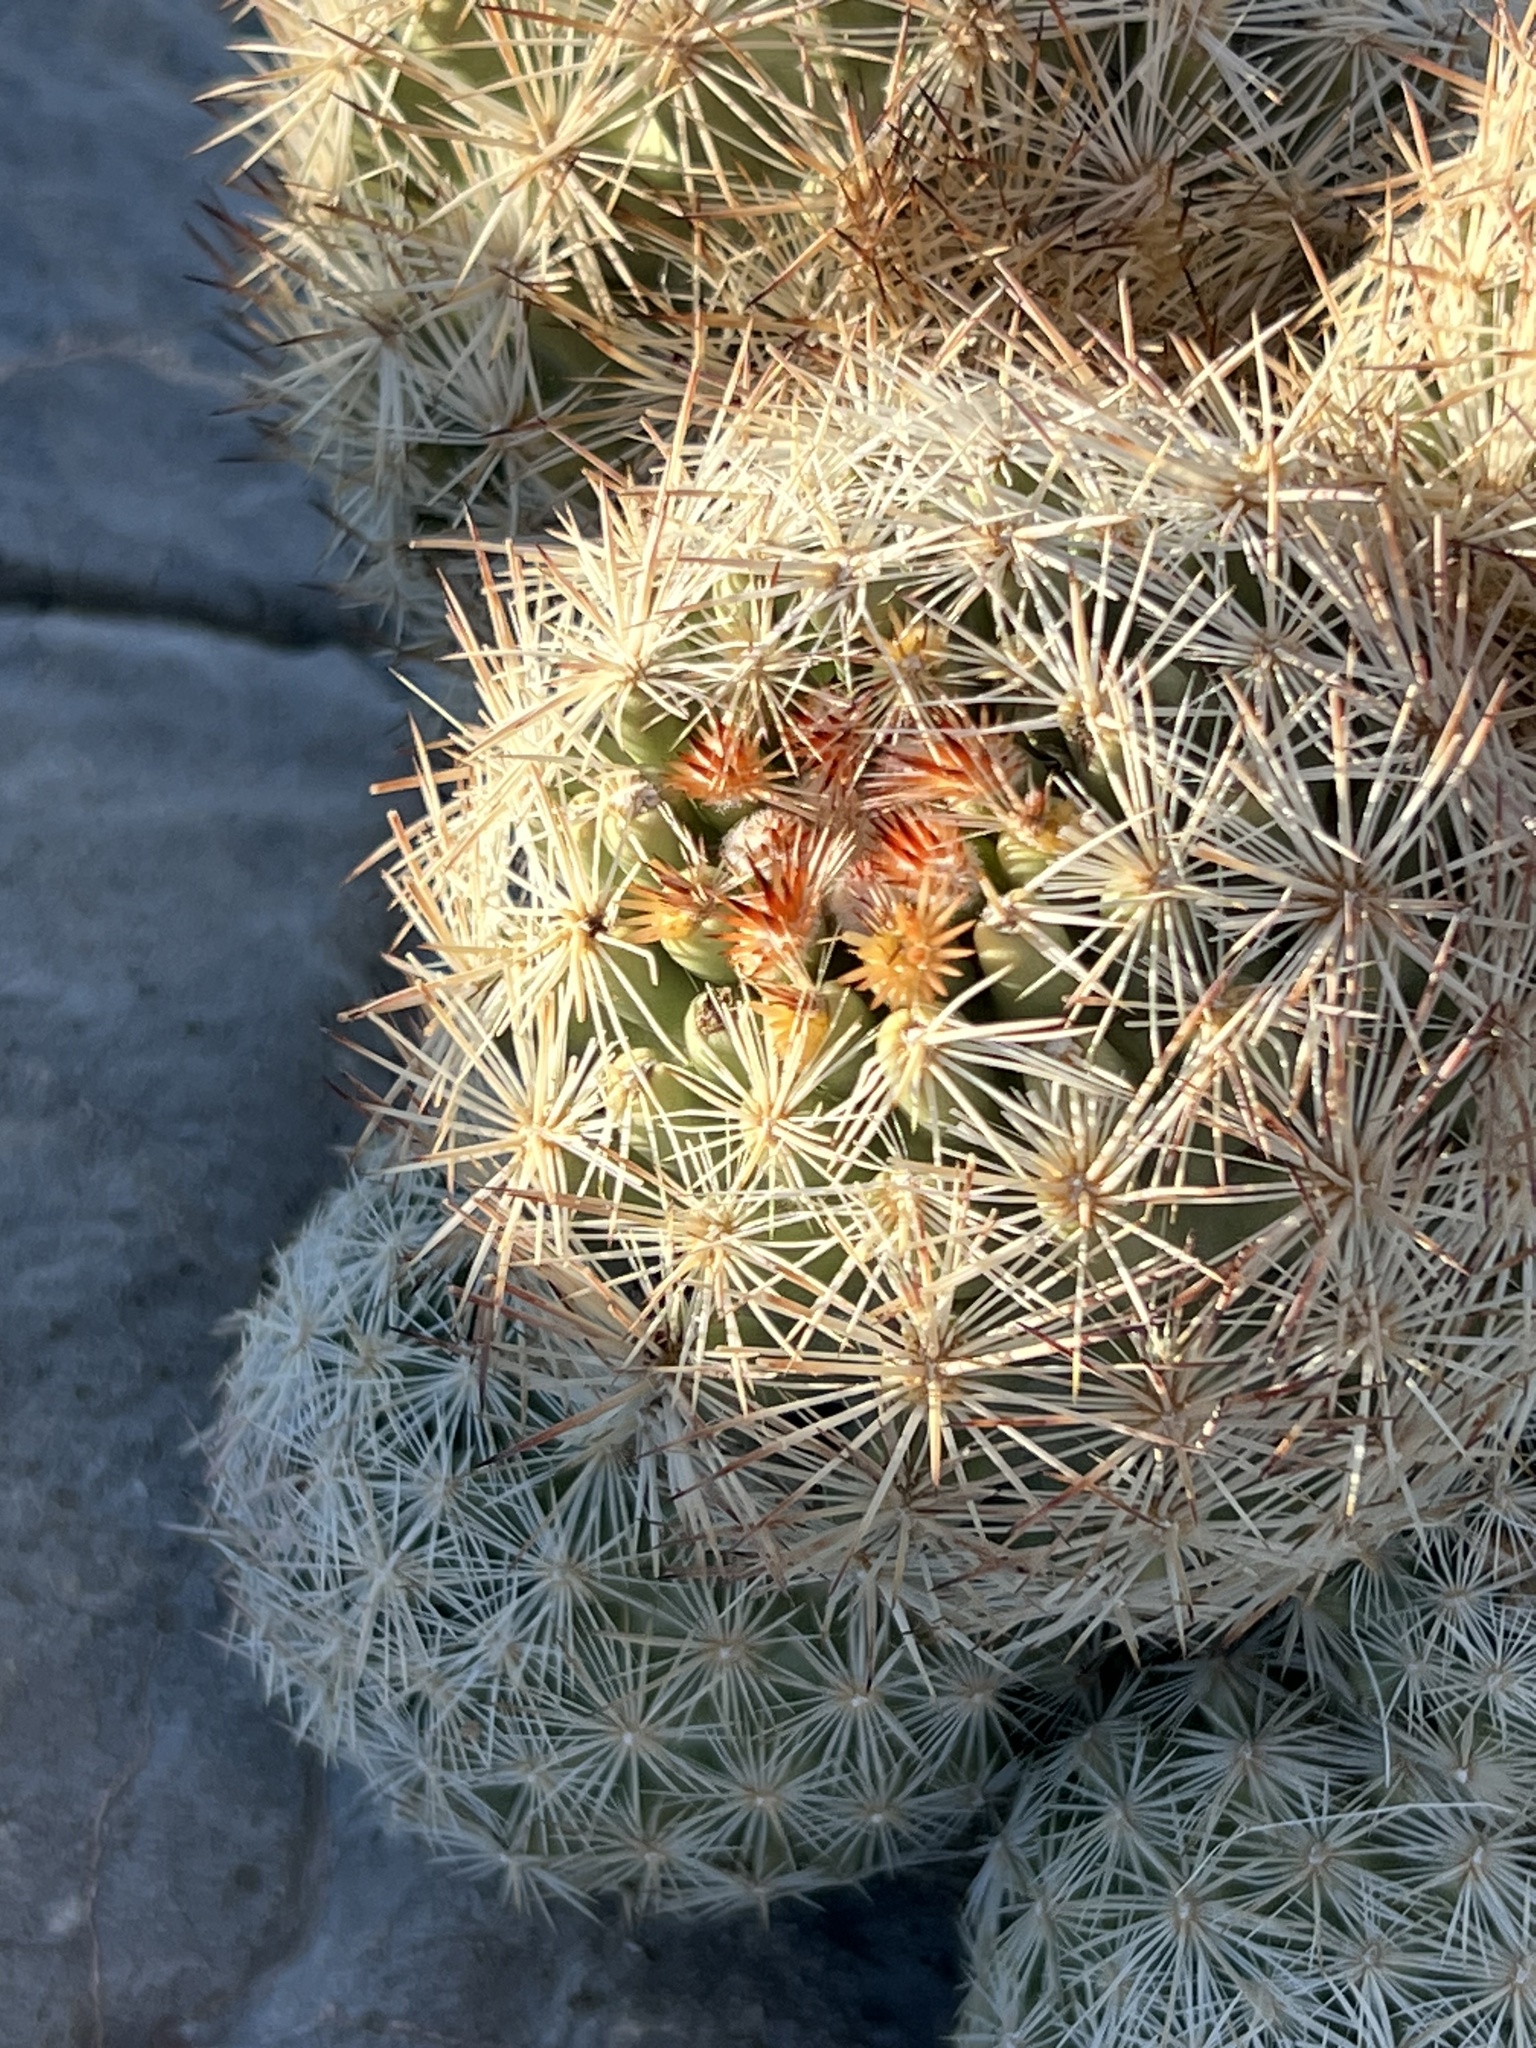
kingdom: Plantae
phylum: Tracheophyta
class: Magnoliopsida
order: Caryophyllales
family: Cactaceae
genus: Pelecyphora
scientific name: Pelecyphora dasyacantha
